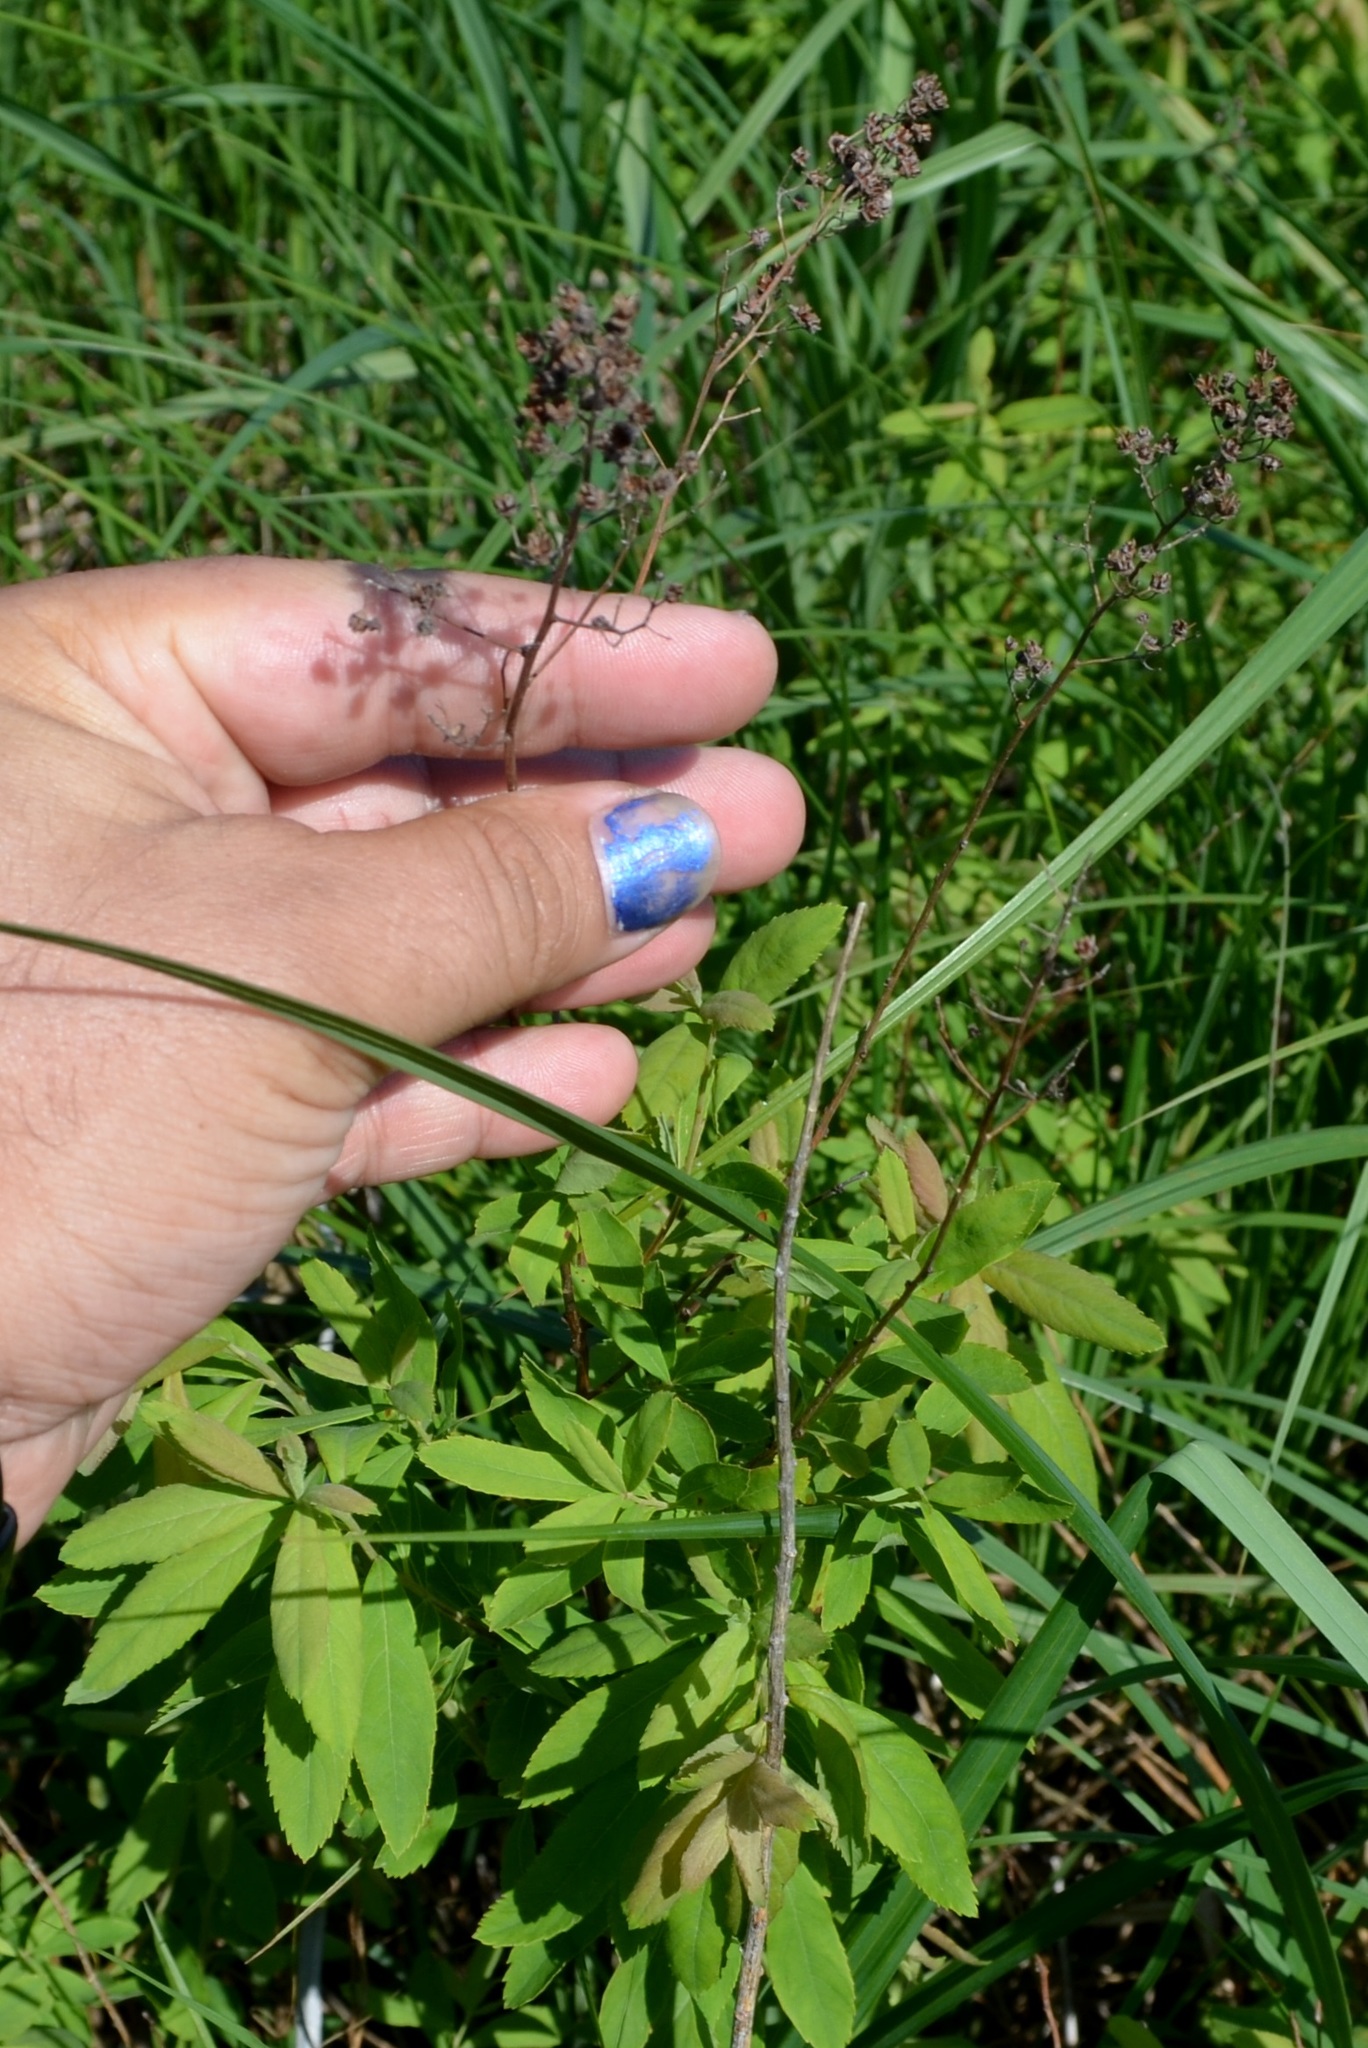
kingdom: Plantae
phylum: Tracheophyta
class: Magnoliopsida
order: Rosales
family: Rosaceae
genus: Spiraea
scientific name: Spiraea alba
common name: Pale bridewort
